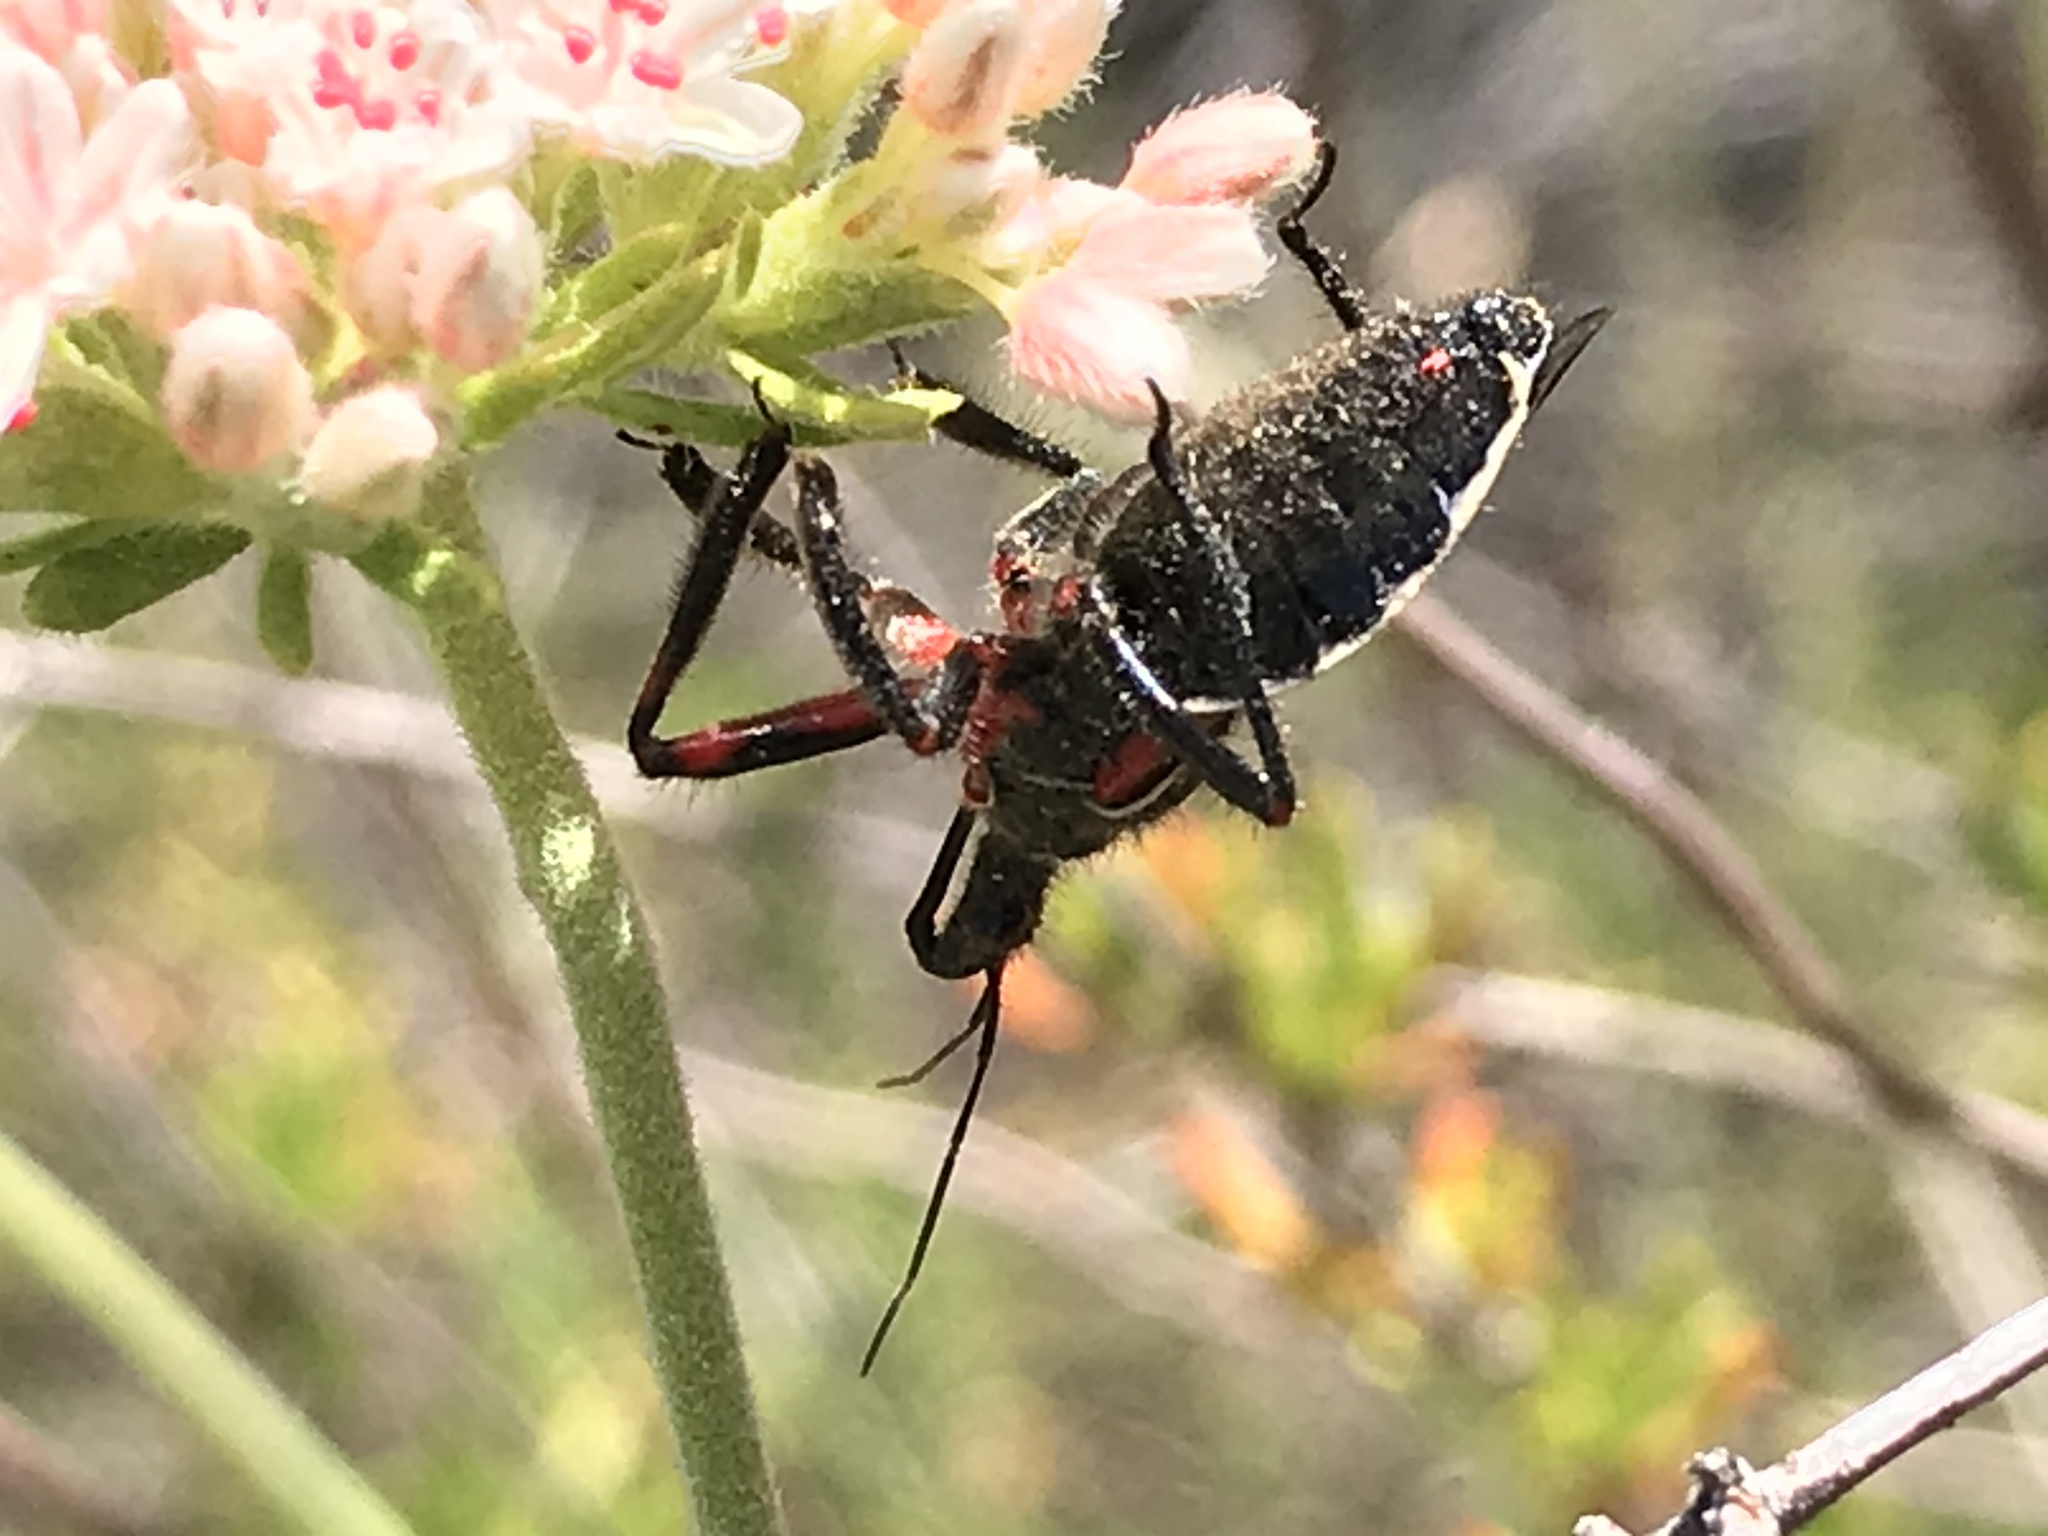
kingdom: Animalia
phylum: Arthropoda
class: Insecta
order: Hemiptera
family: Reduviidae
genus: Apiomerus
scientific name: Apiomerus californicus
